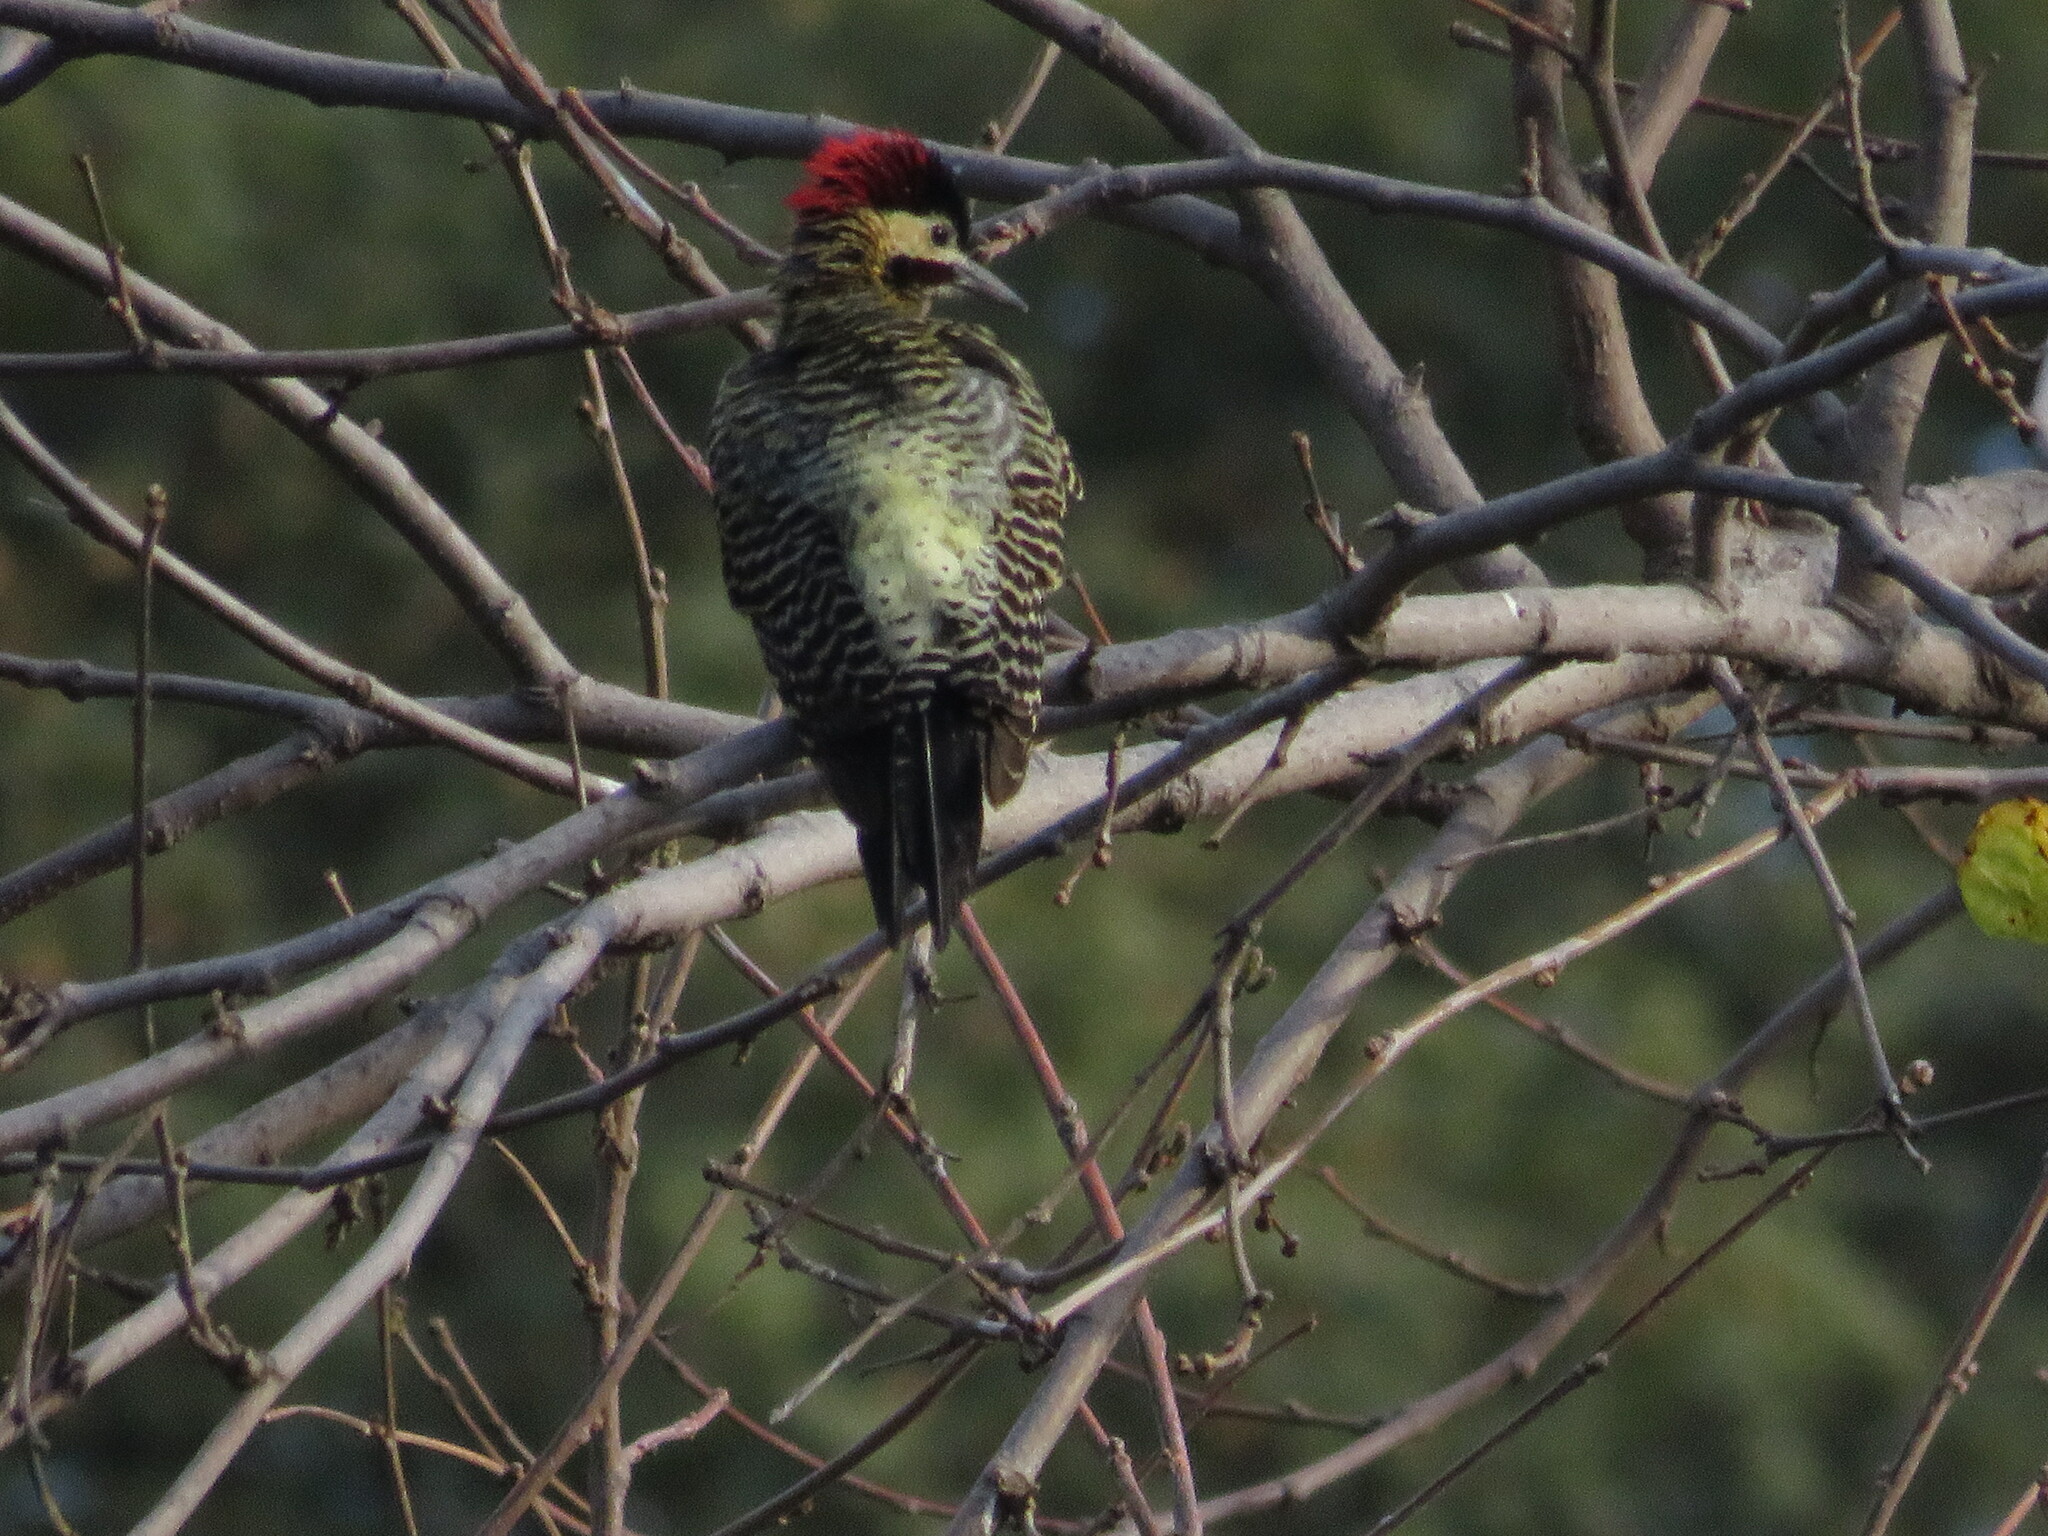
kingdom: Animalia
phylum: Chordata
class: Aves
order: Piciformes
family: Picidae
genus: Colaptes
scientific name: Colaptes melanochloros
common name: Green-barred woodpecker
